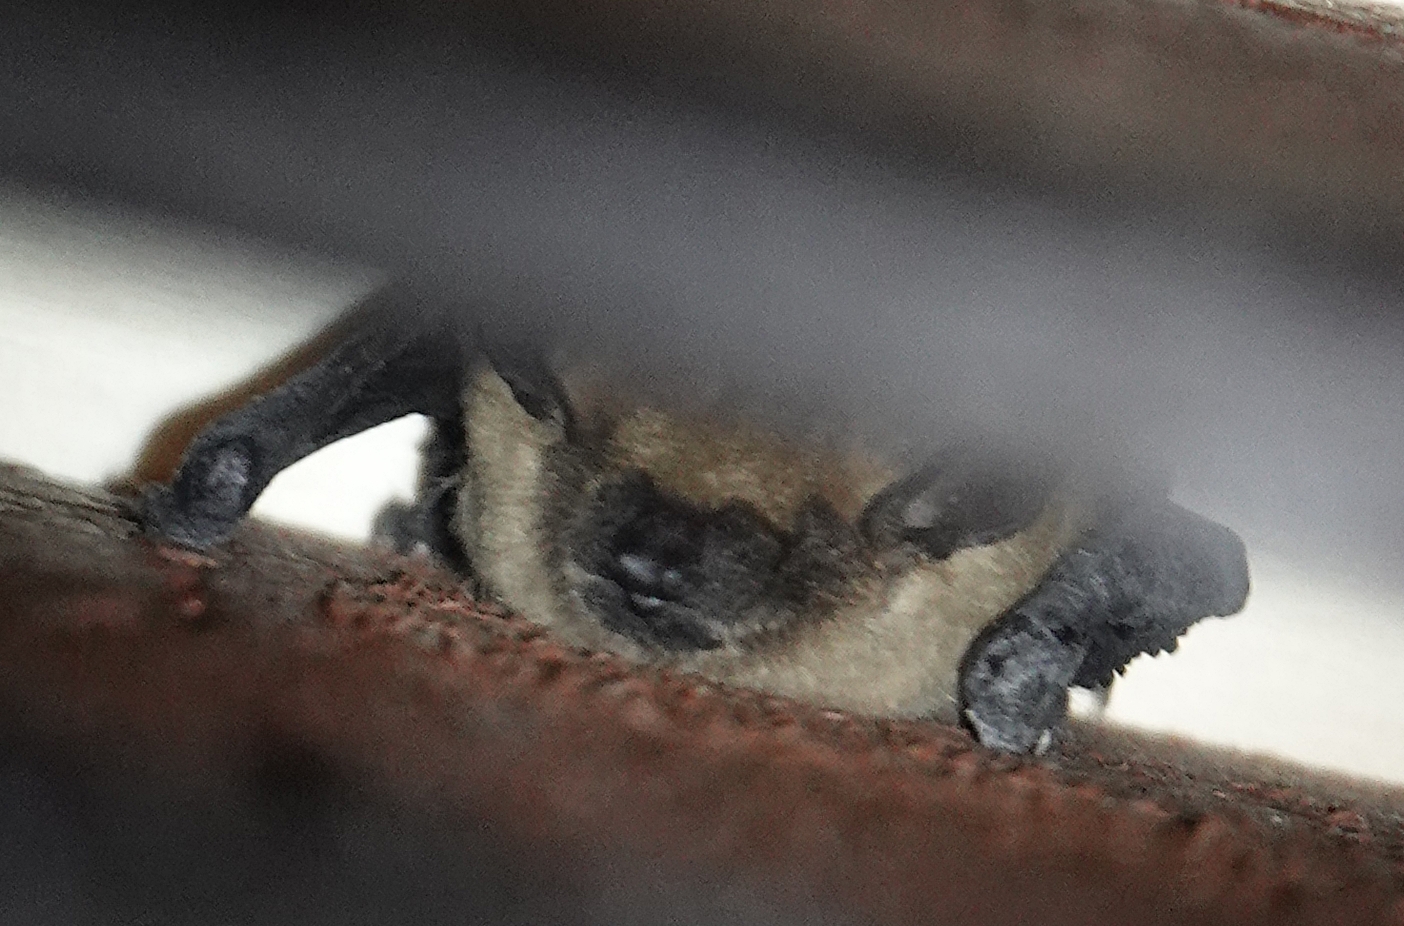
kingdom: Animalia
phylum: Chordata
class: Mammalia
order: Chiroptera
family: Vespertilionidae
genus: Eptesicus
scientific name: Eptesicus fuscus
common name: Big brown bat
